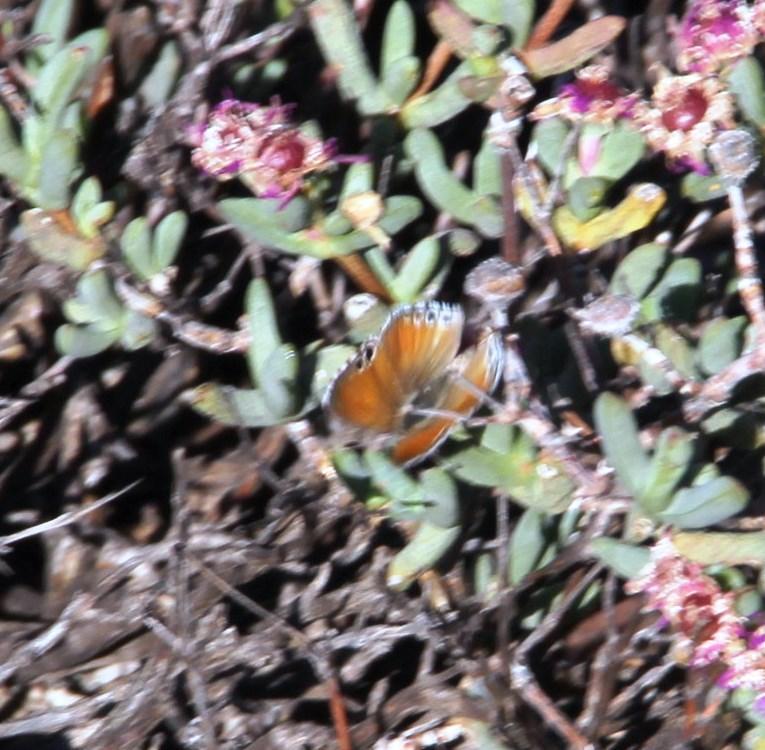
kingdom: Animalia
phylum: Arthropoda
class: Insecta
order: Lepidoptera
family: Lycaenidae
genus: Leptomyrina
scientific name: Leptomyrina lara
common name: Cape black-eye
